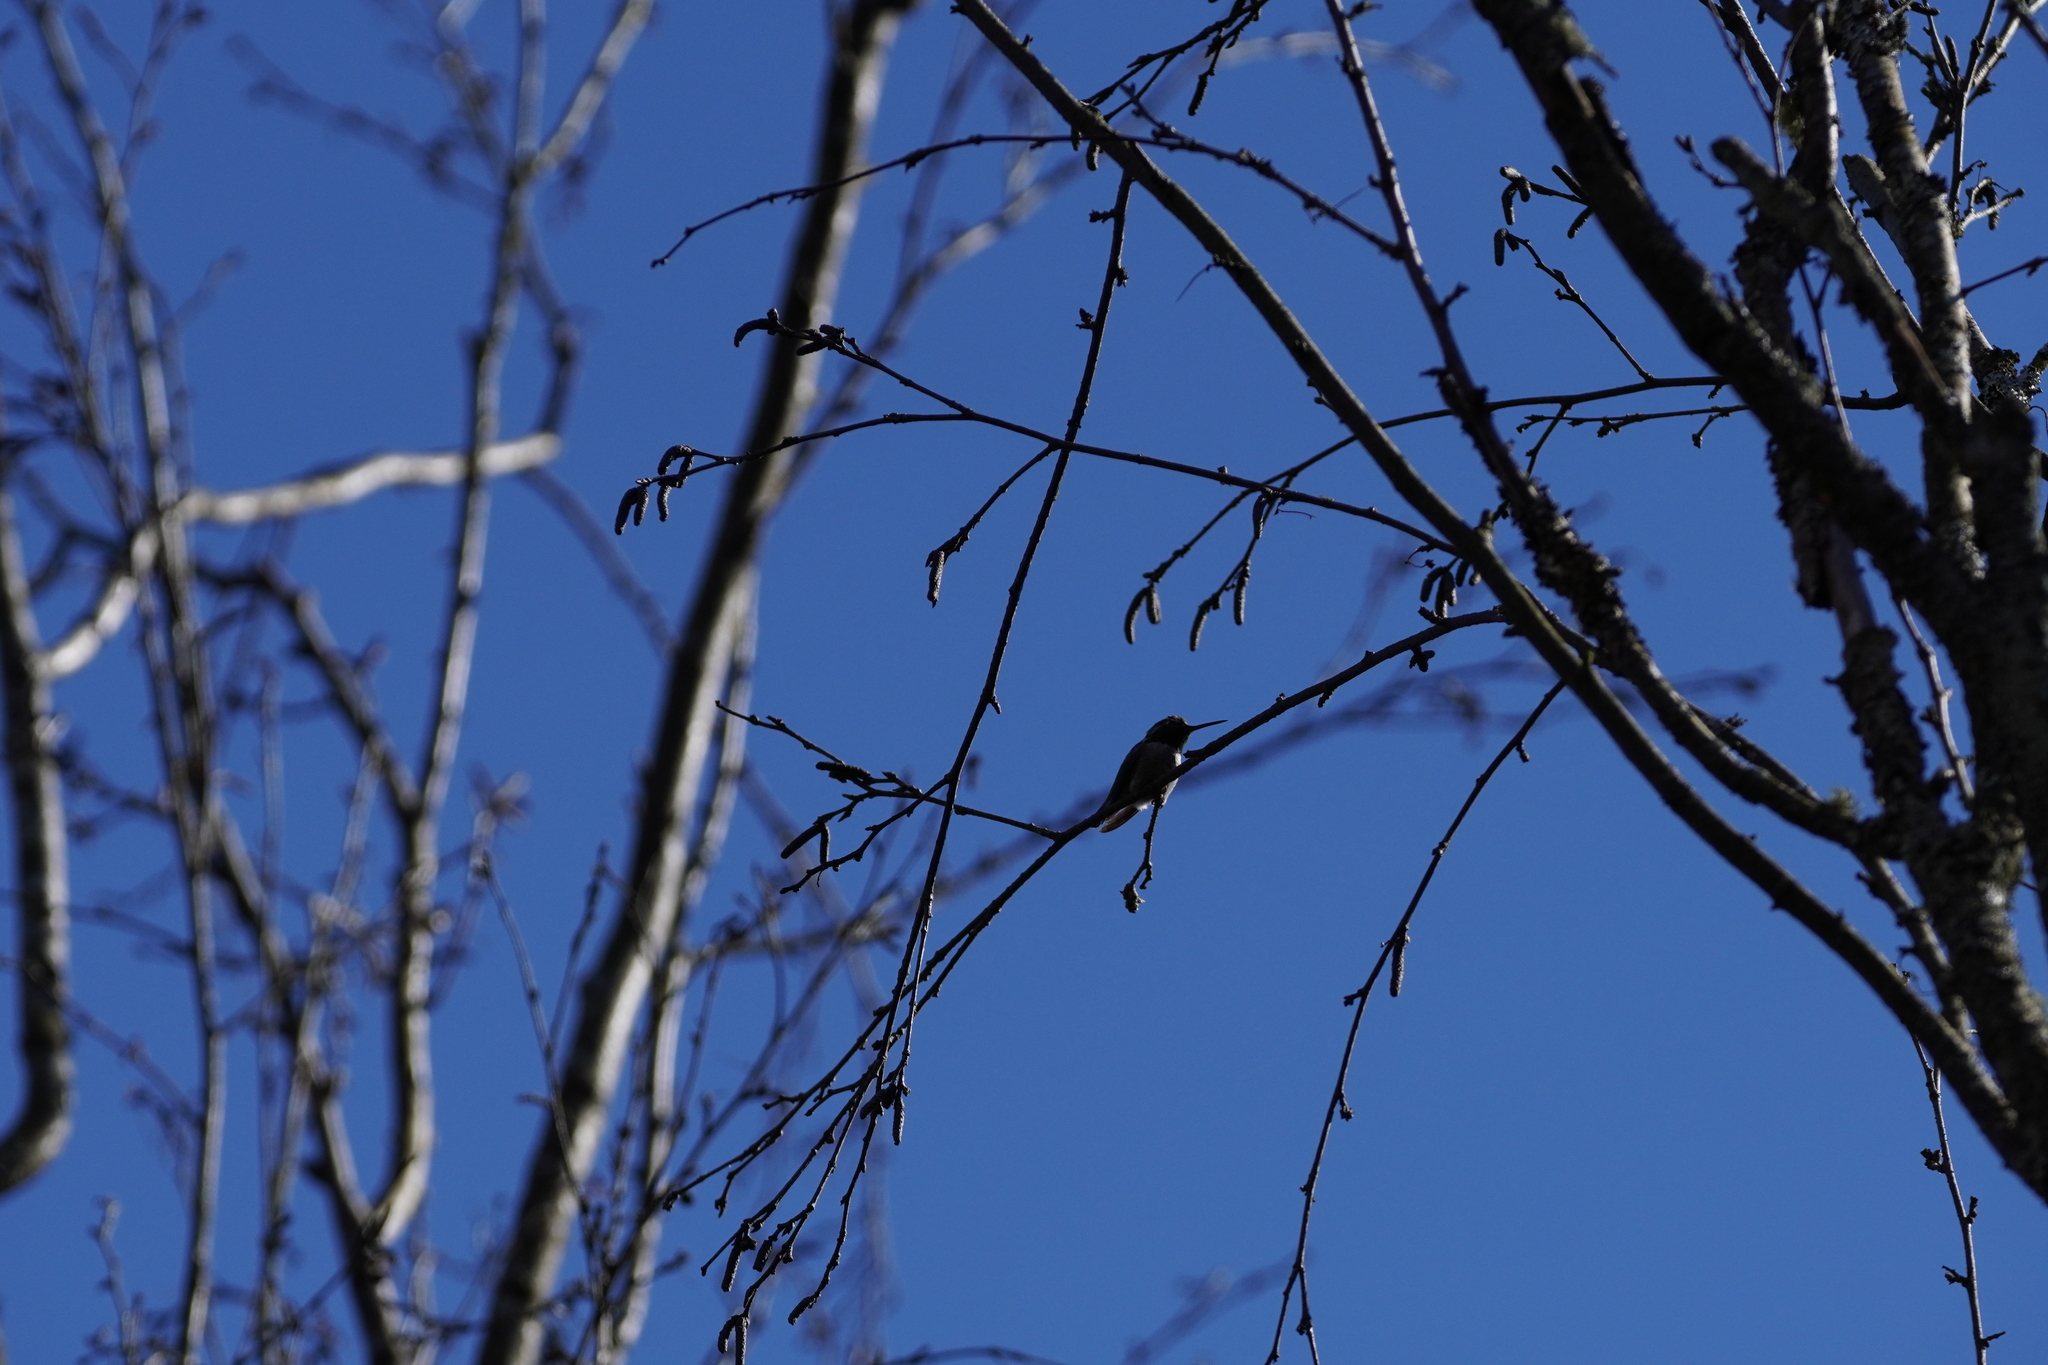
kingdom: Animalia
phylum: Chordata
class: Aves
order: Apodiformes
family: Trochilidae
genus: Calypte
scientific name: Calypte anna
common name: Anna's hummingbird
